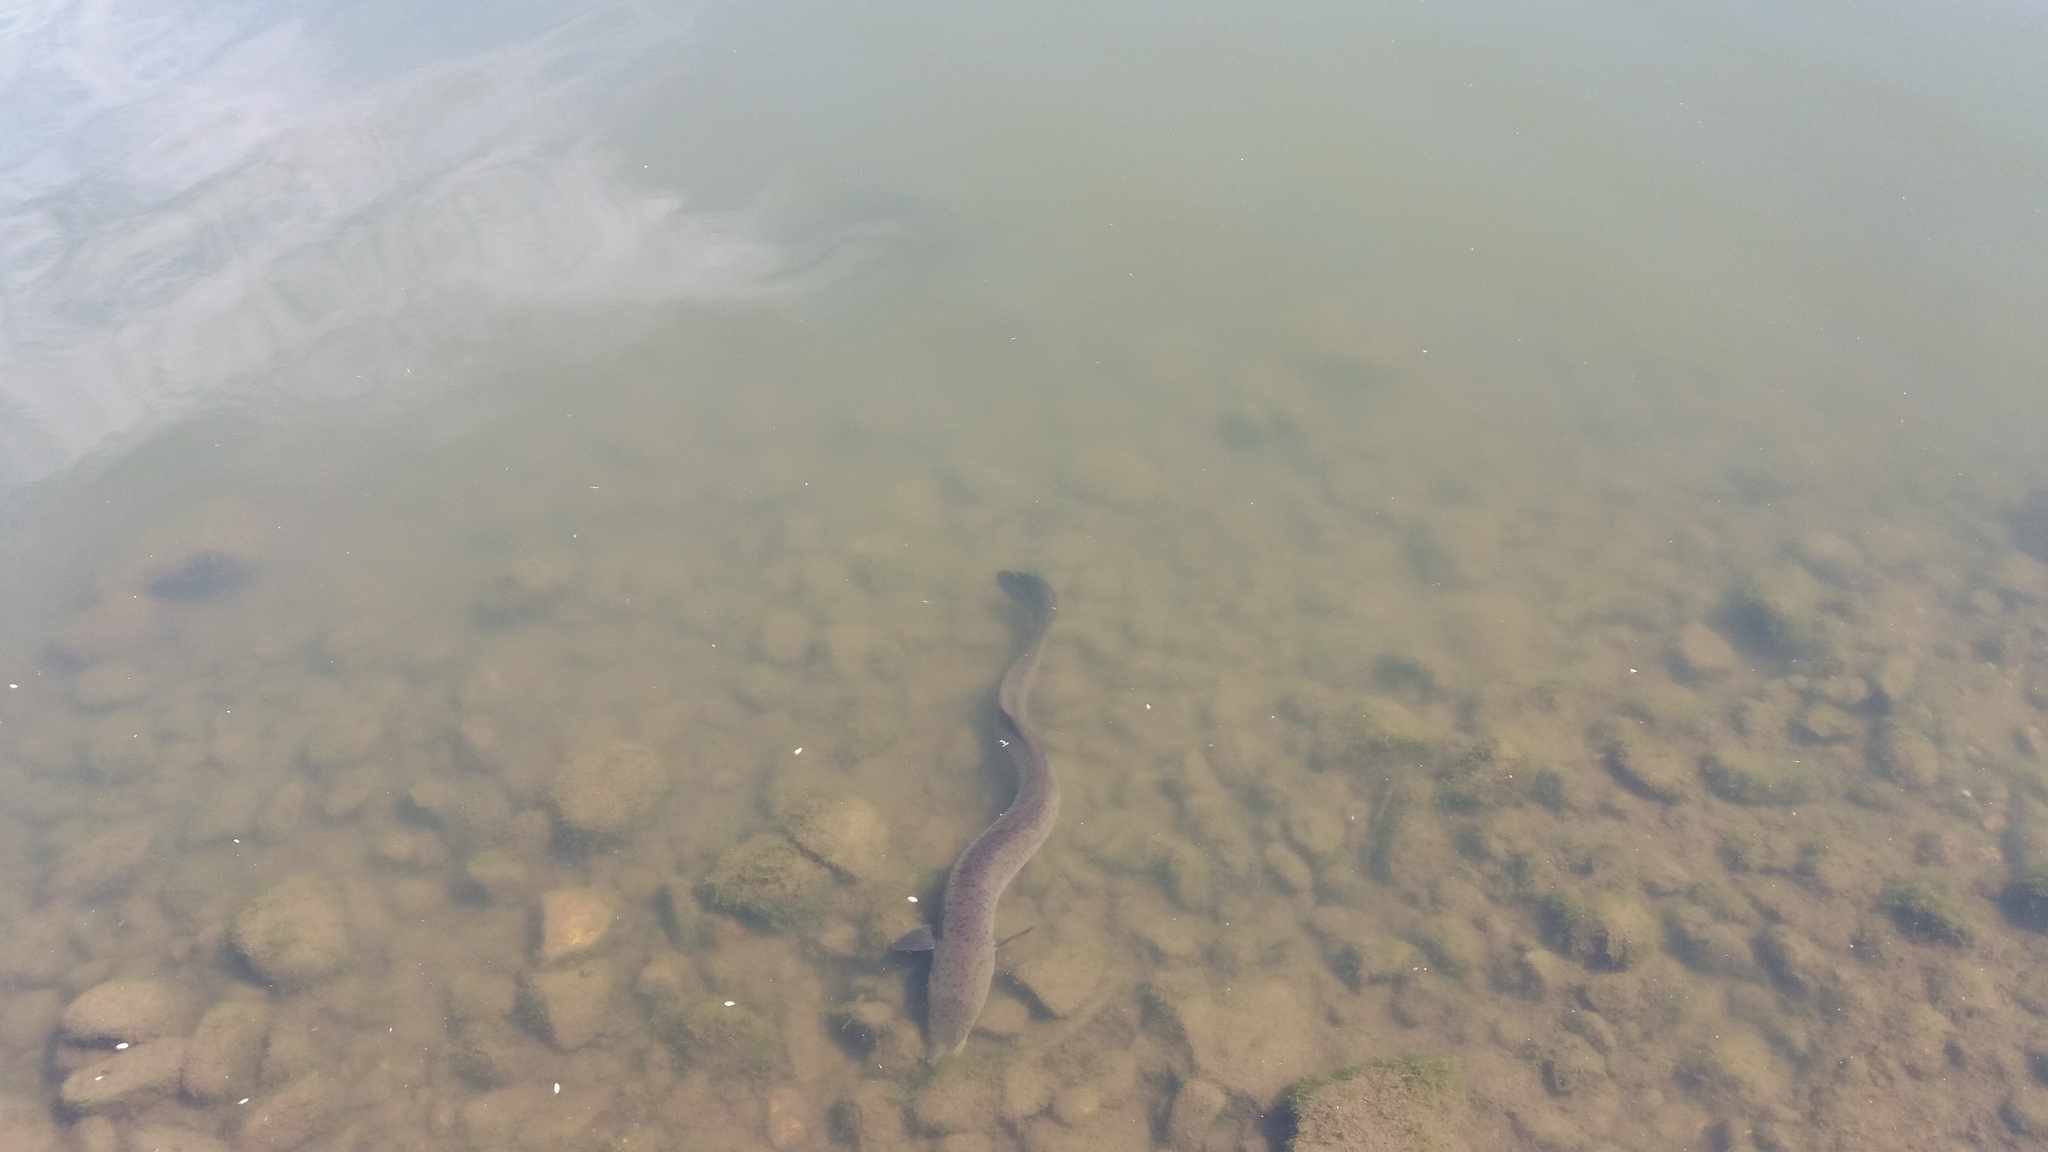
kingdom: Animalia
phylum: Chordata
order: Anguilliformes
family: Anguillidae
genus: Anguilla
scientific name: Anguilla reinhardtii
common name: Longfin eel
